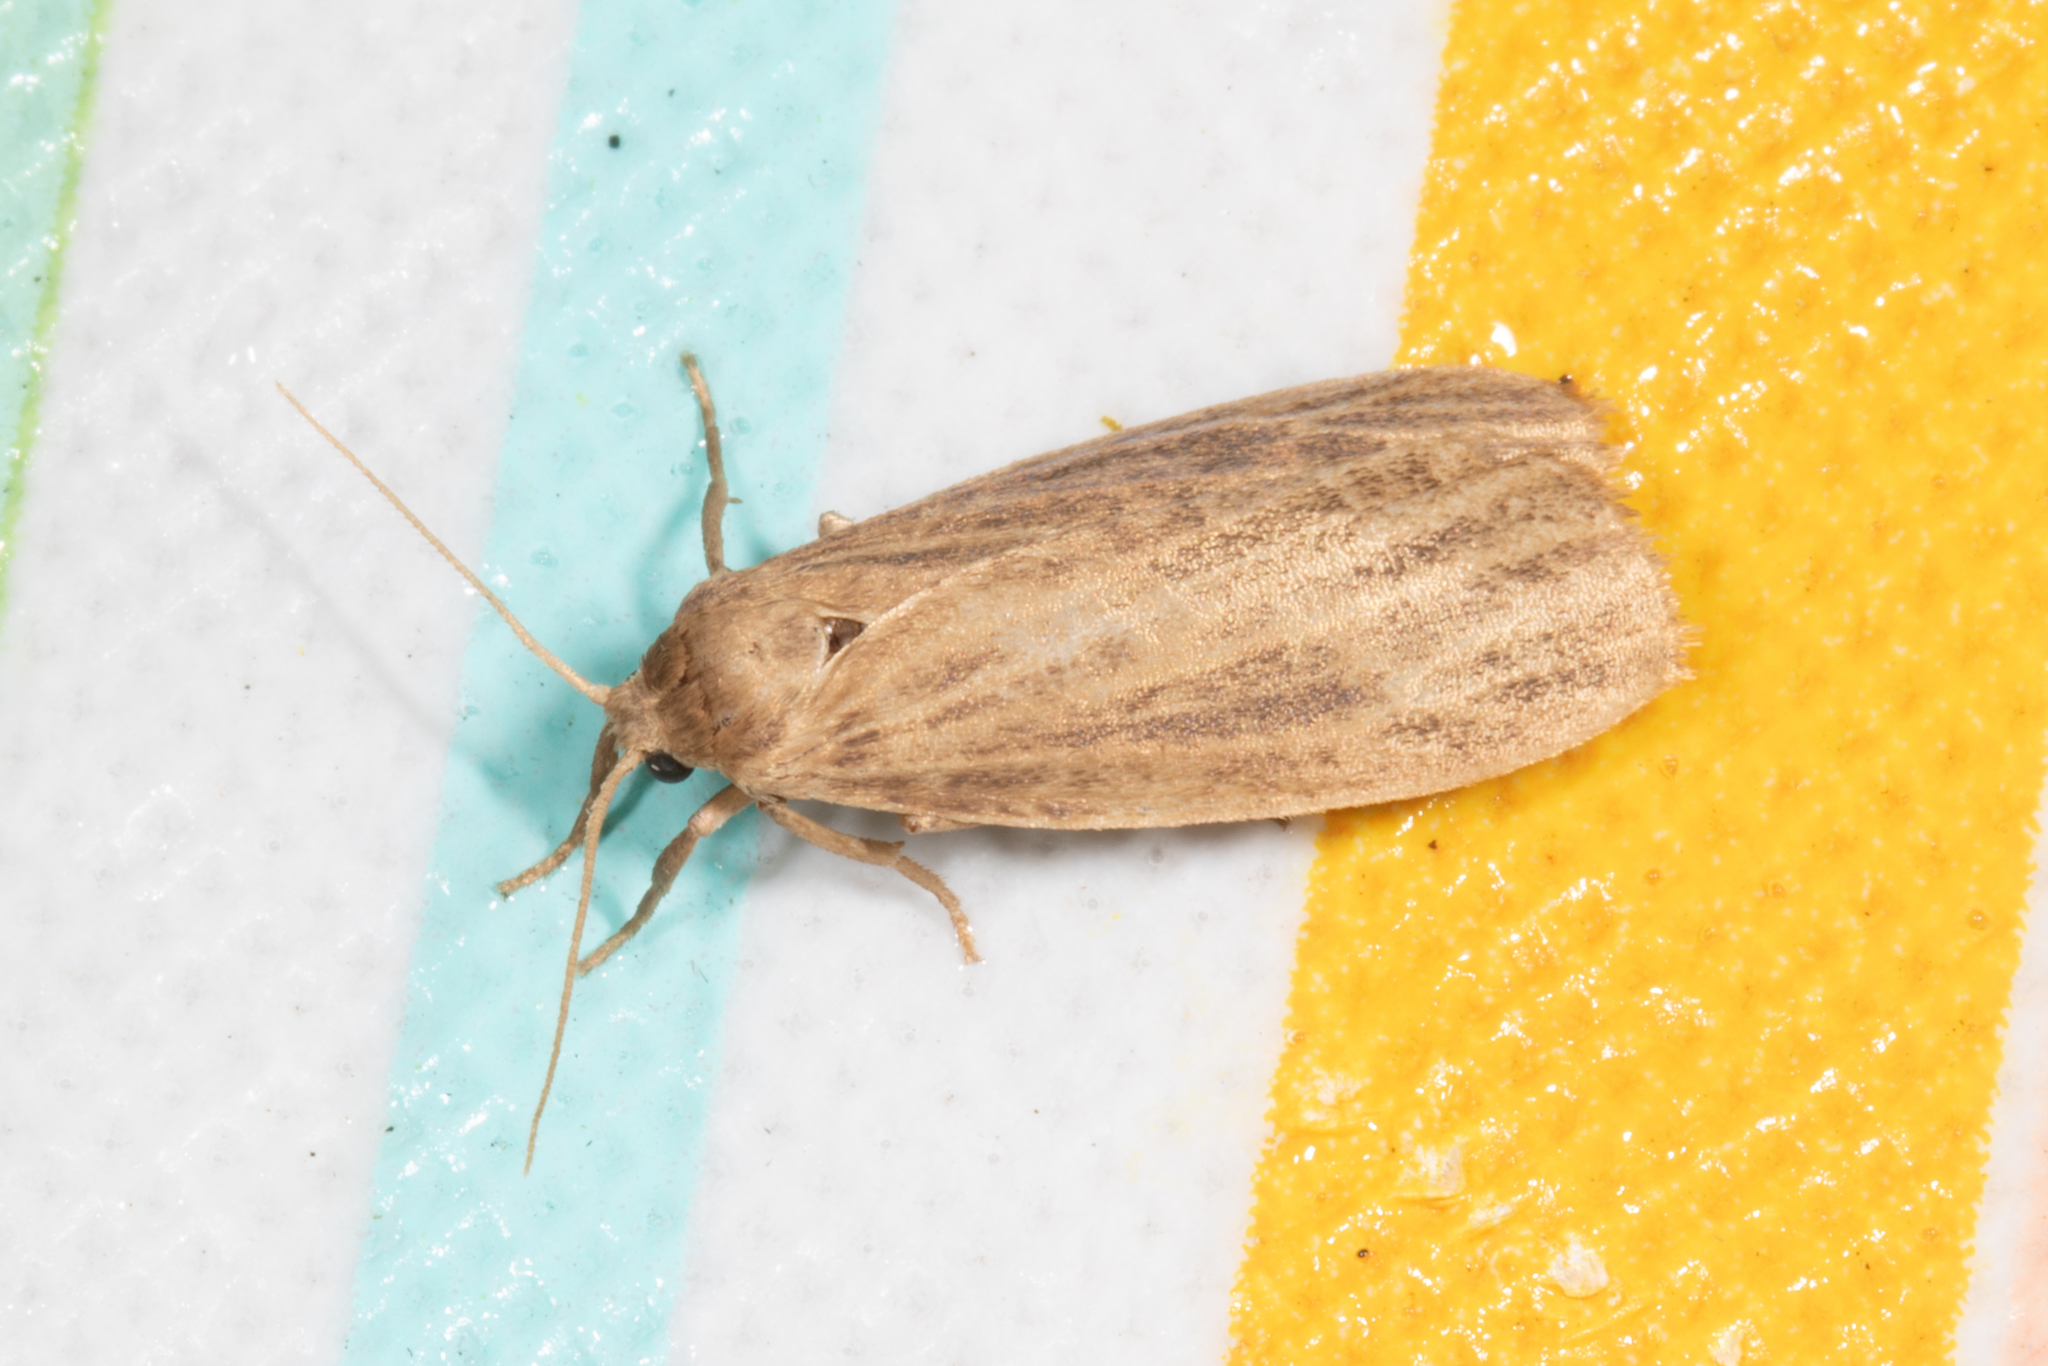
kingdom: Animalia
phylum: Arthropoda
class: Insecta
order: Lepidoptera
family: Erebidae
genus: Crambidia
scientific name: Crambidia pallida
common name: Pale lichen moth
